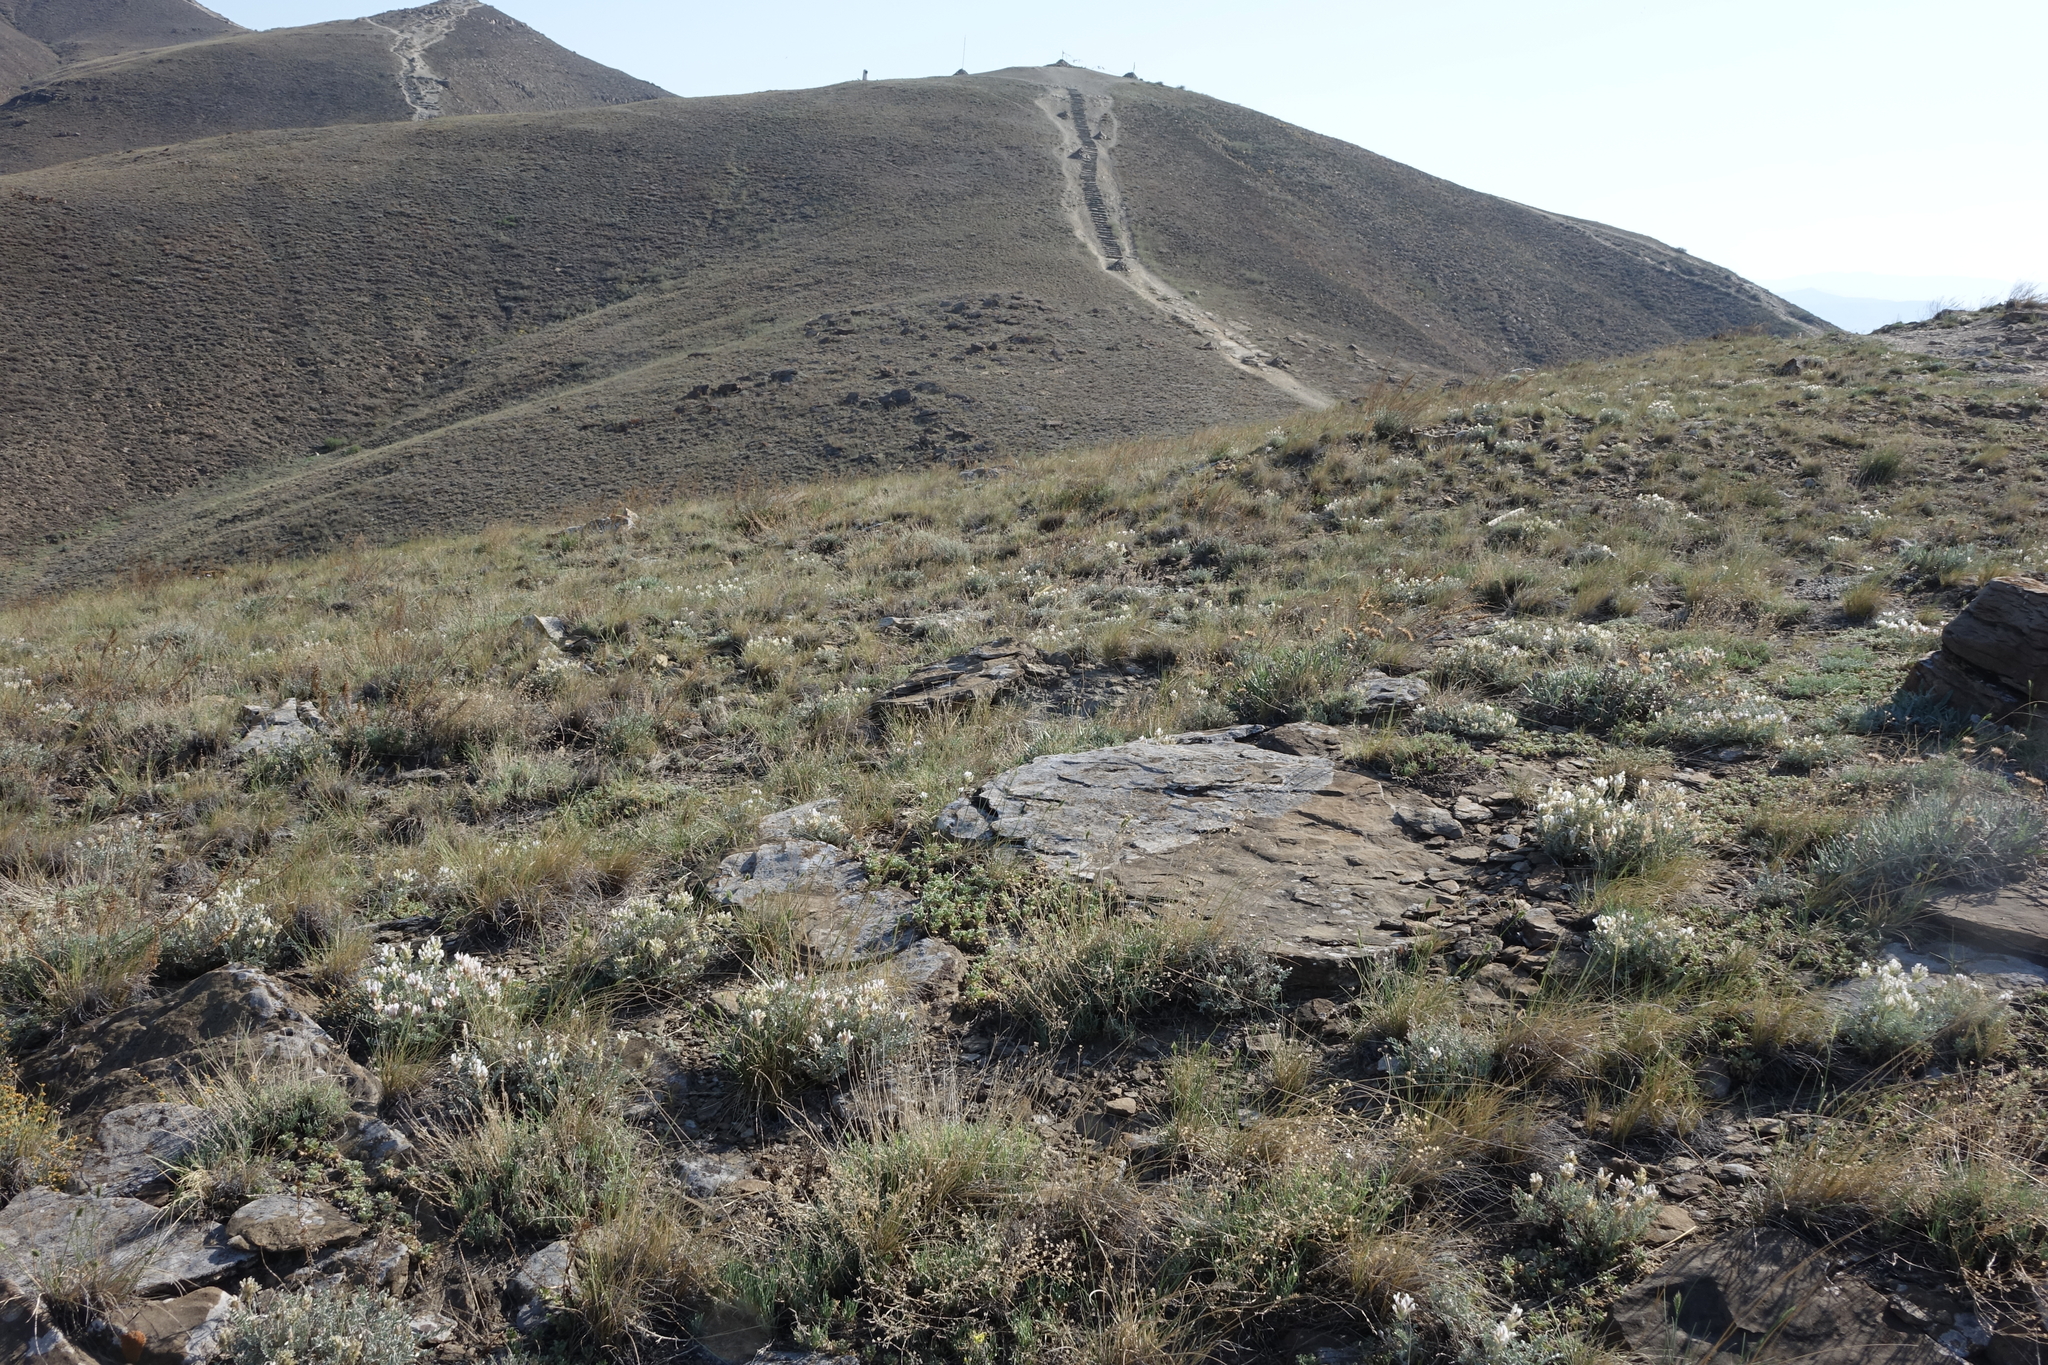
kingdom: Plantae
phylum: Tracheophyta
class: Magnoliopsida
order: Fabales
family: Fabaceae
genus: Astragalus
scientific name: Astragalus dilutus
